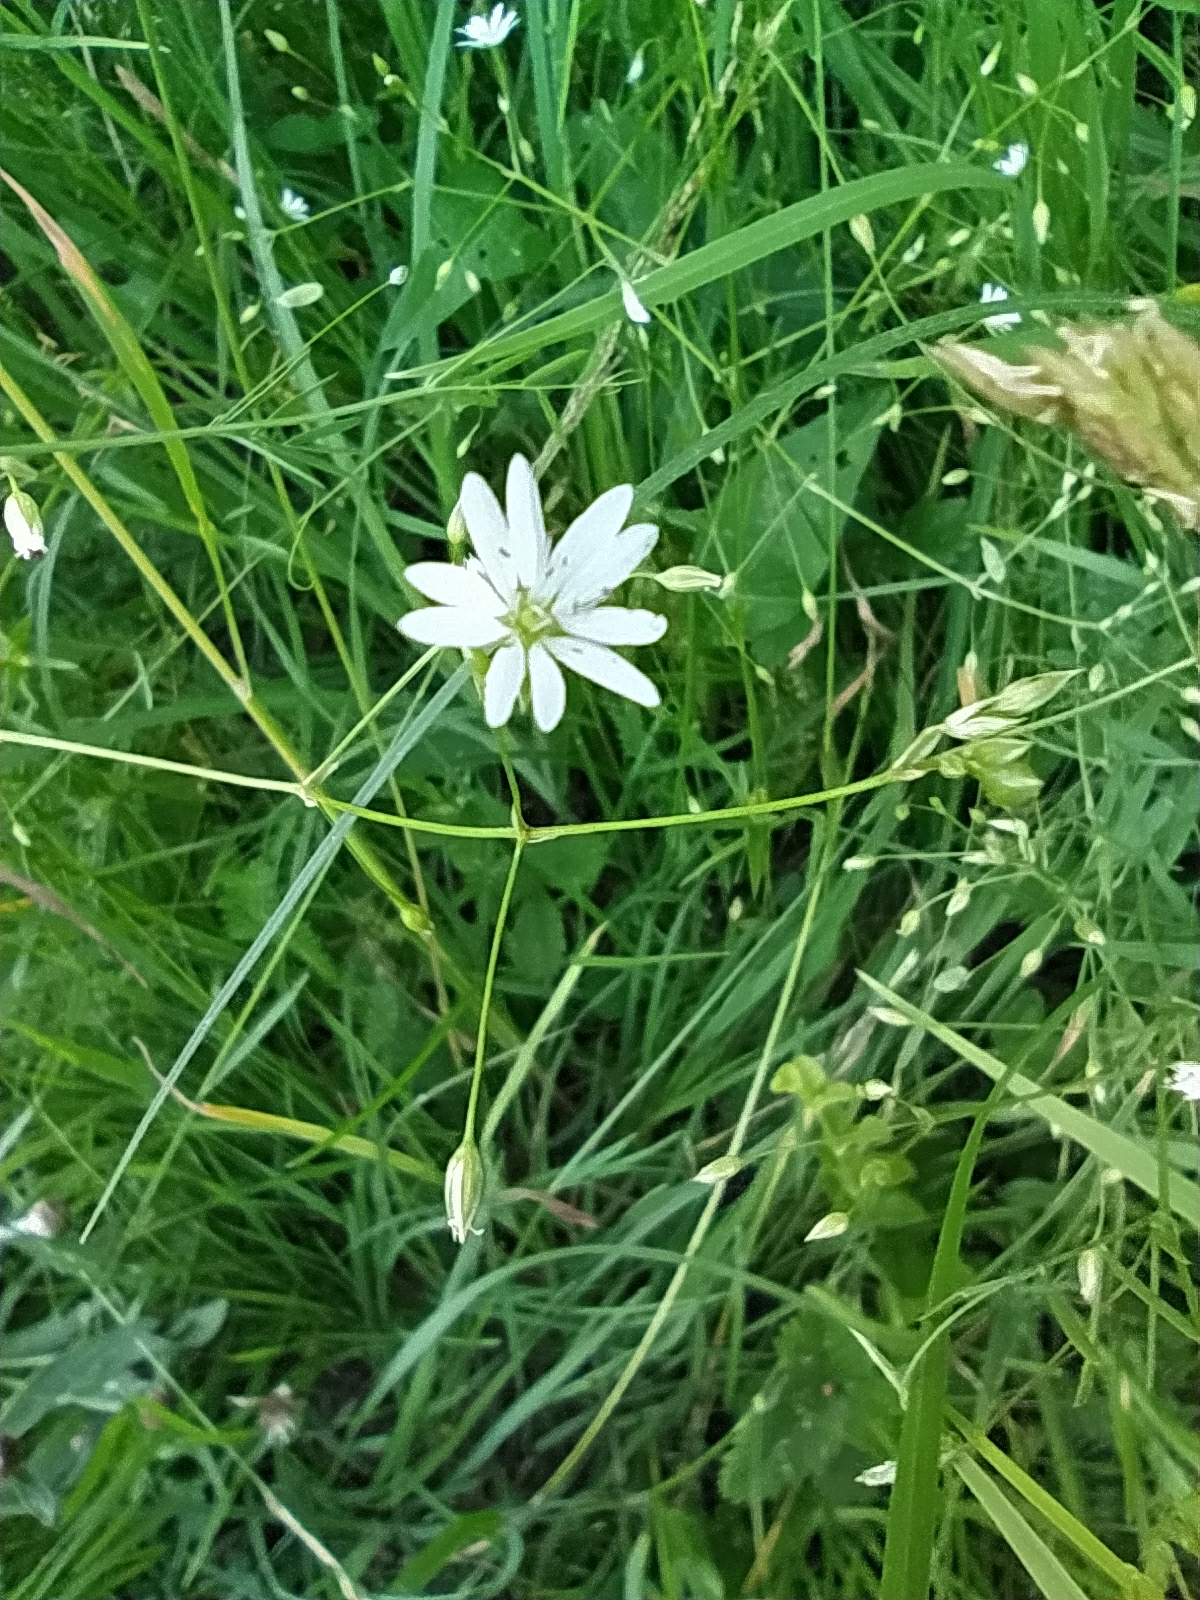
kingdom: Plantae
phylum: Tracheophyta
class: Magnoliopsida
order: Caryophyllales
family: Caryophyllaceae
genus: Stellaria
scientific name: Stellaria graminea
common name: Grass-like starwort
